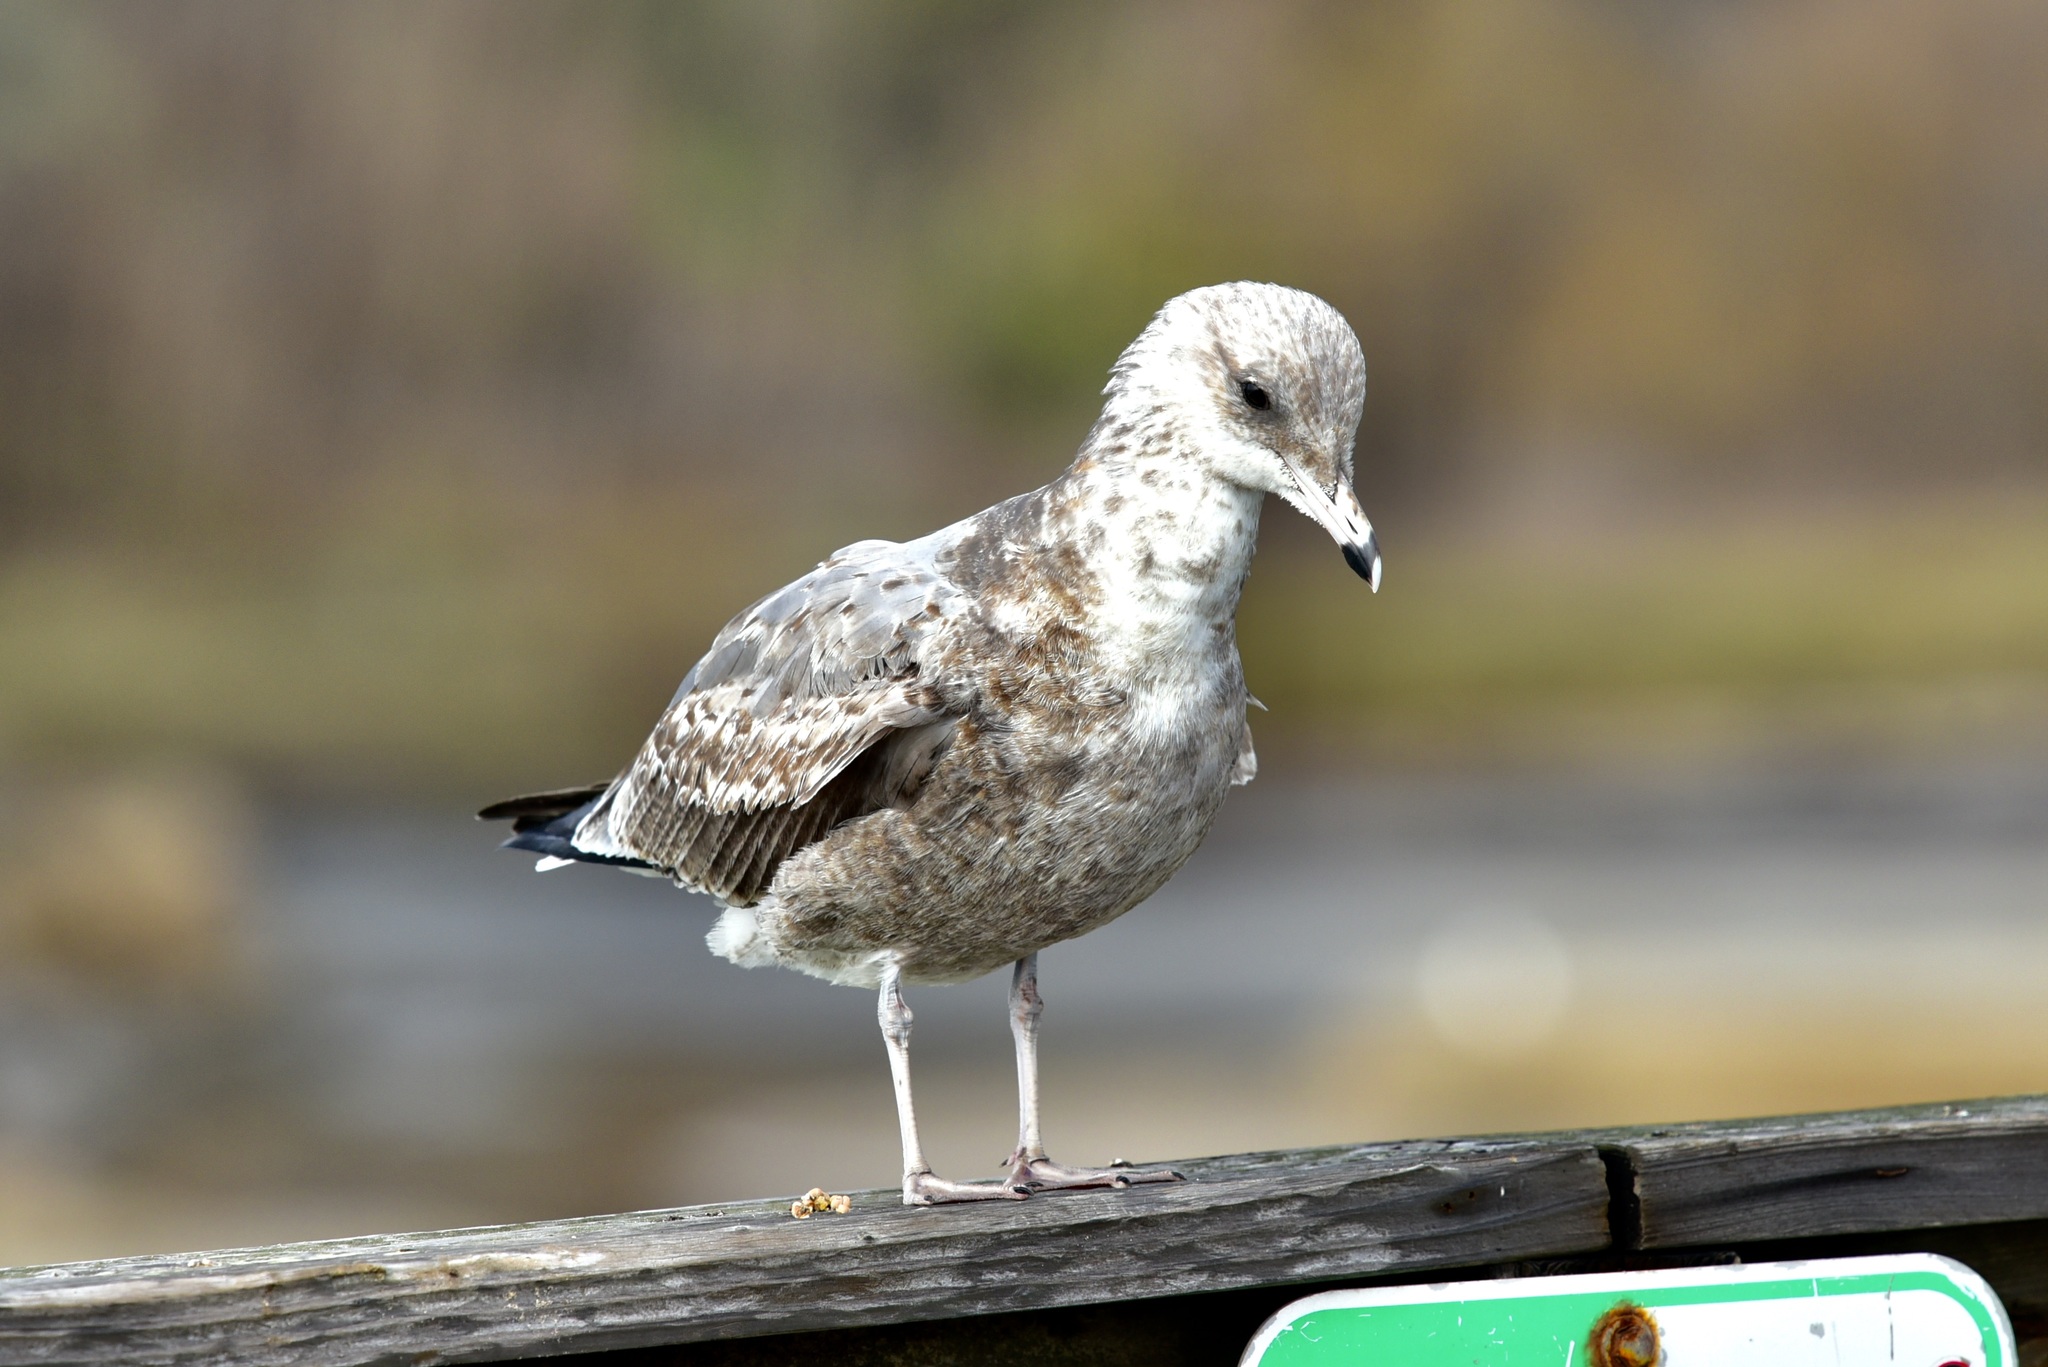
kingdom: Animalia
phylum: Chordata
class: Aves
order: Charadriiformes
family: Laridae
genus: Larus
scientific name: Larus californicus
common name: California gull
